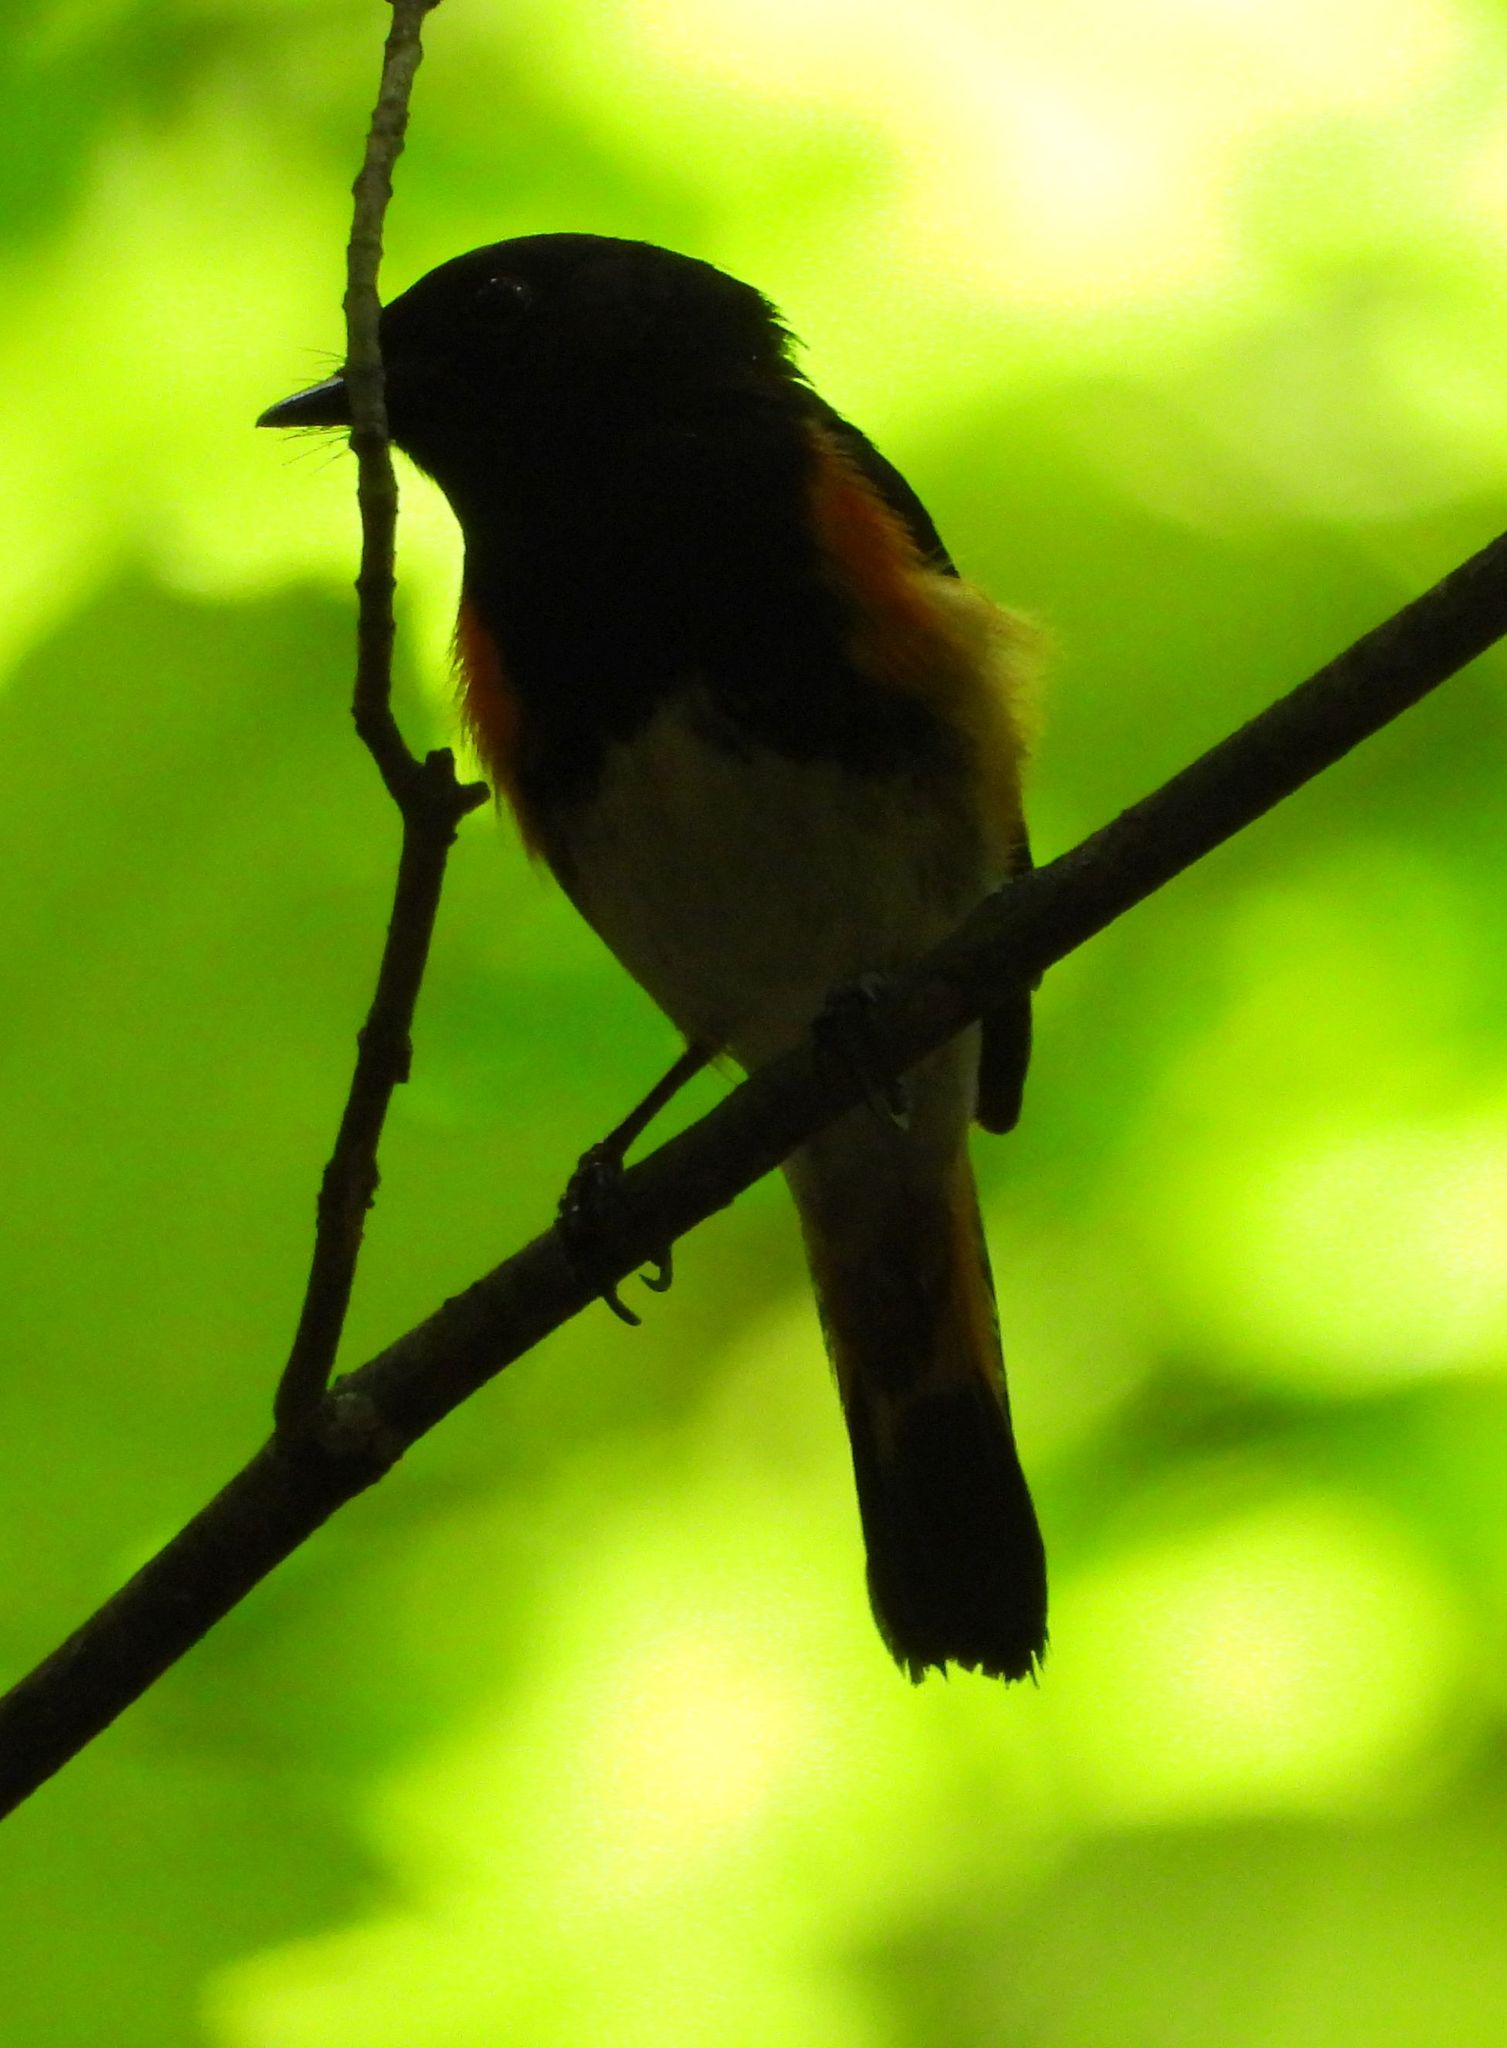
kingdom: Animalia
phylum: Chordata
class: Aves
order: Passeriformes
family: Parulidae
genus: Setophaga
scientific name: Setophaga ruticilla
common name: American redstart
